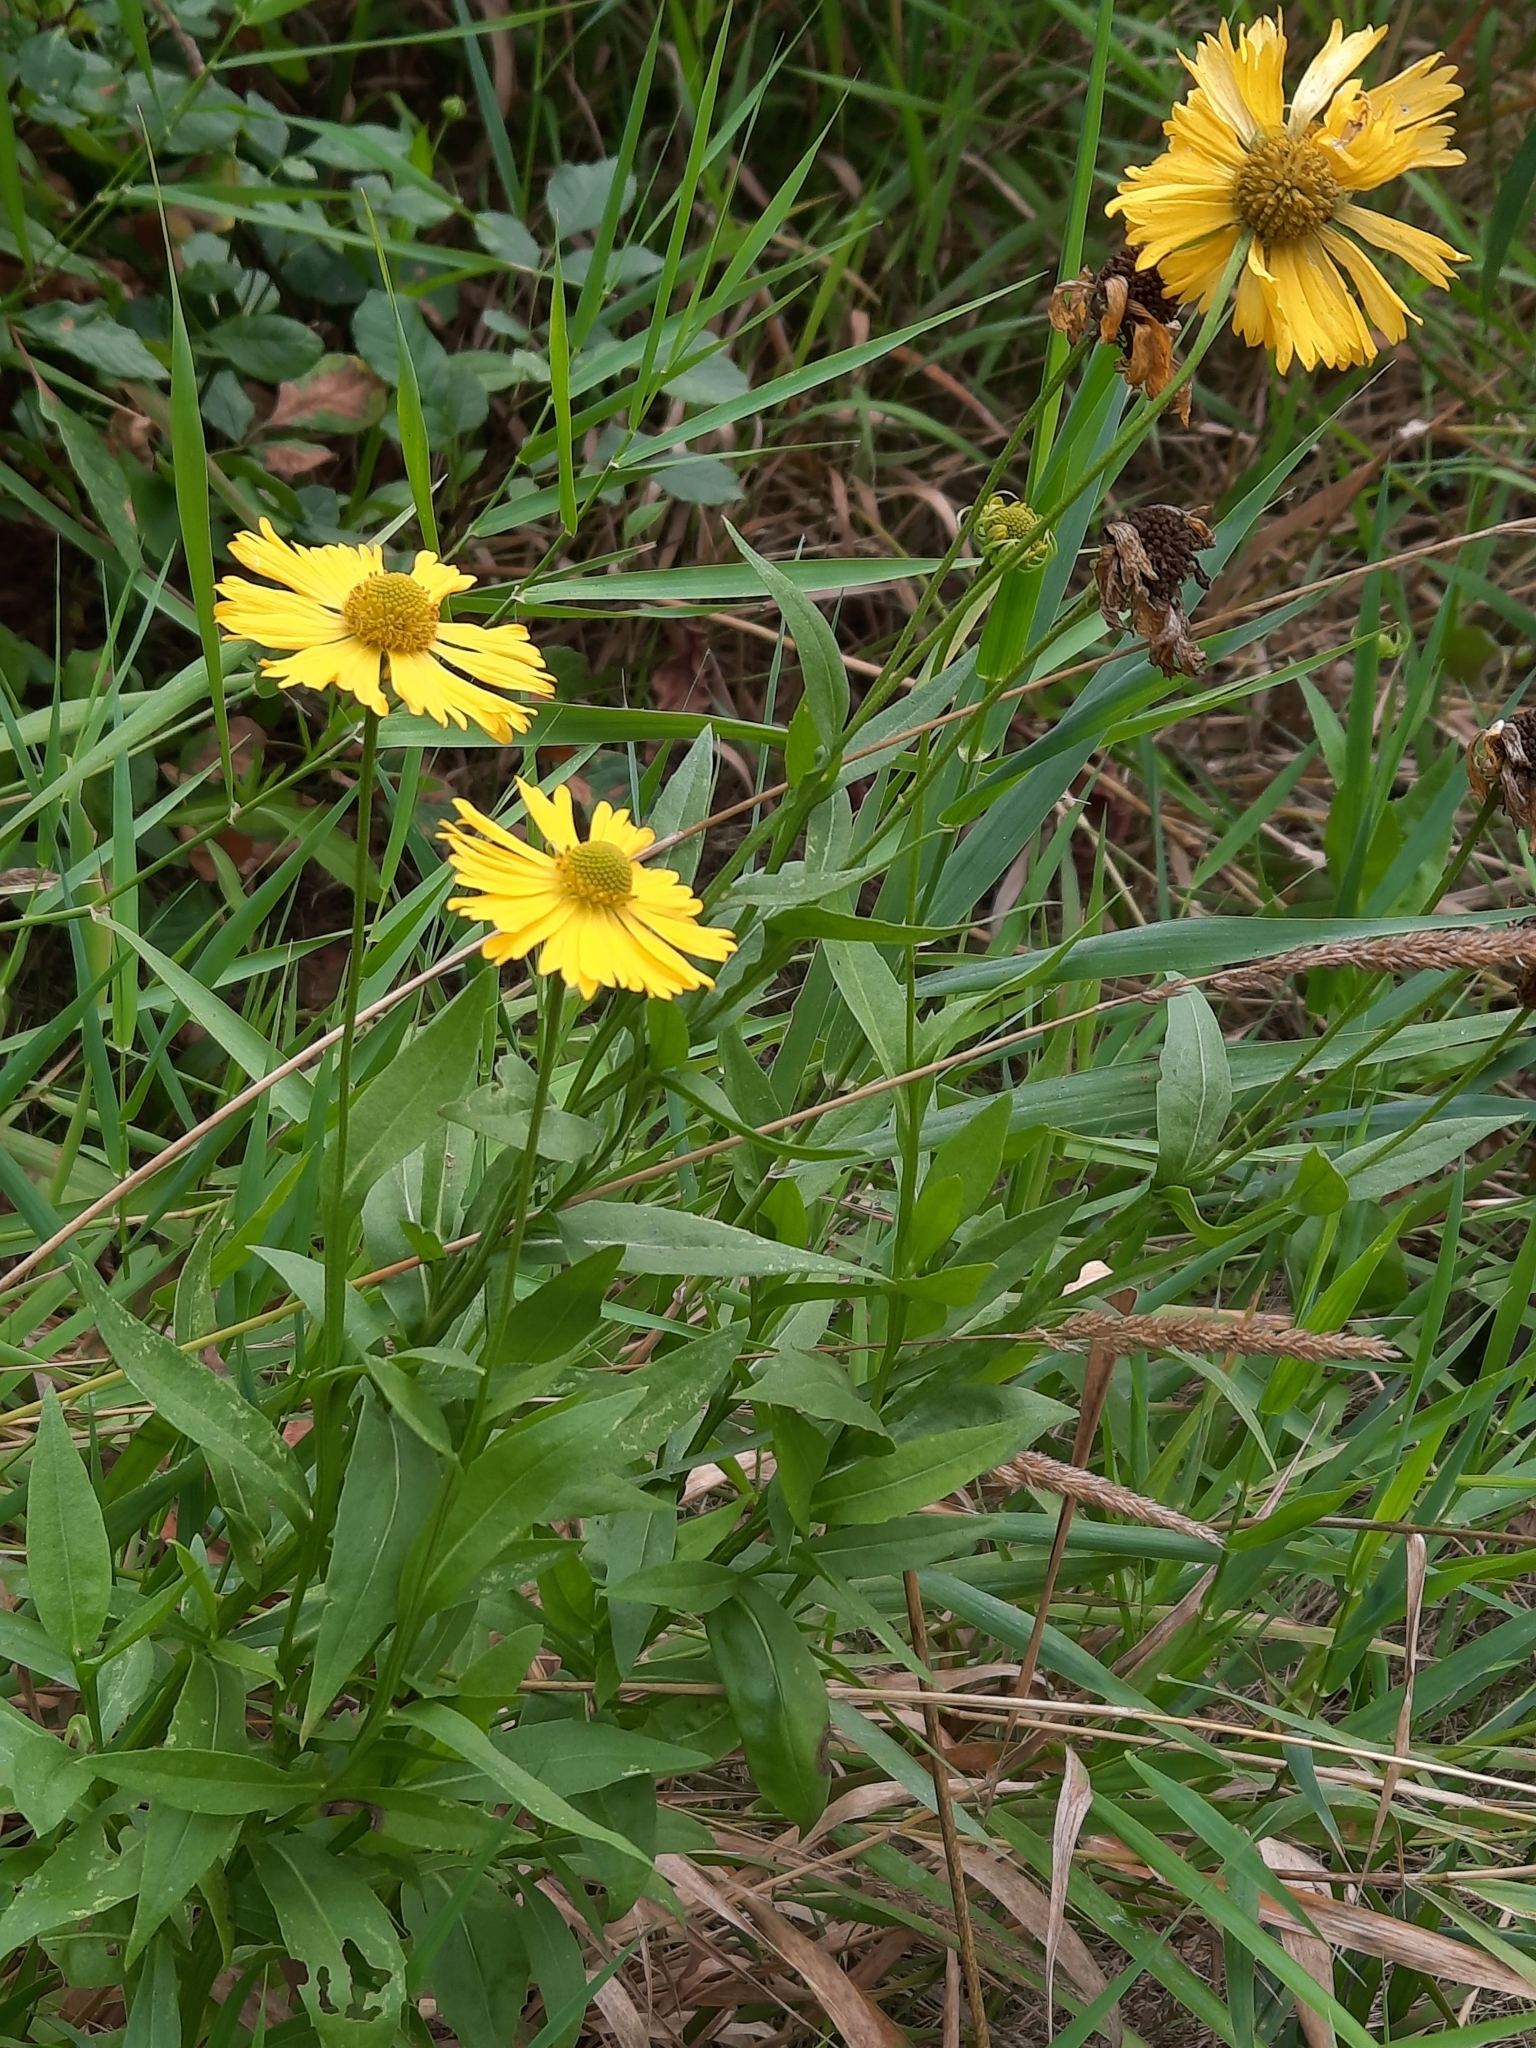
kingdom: Plantae
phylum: Tracheophyta
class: Magnoliopsida
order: Asterales
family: Asteraceae
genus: Helenium
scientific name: Helenium autumnale
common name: Sneezeweed
